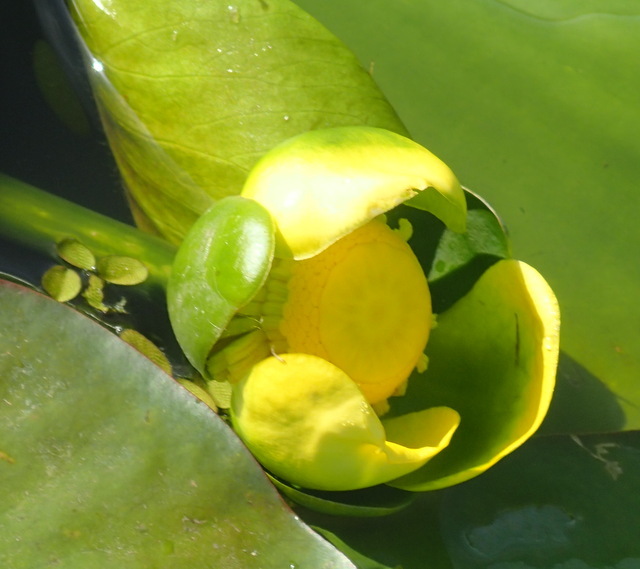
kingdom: Plantae
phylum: Tracheophyta
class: Magnoliopsida
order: Nymphaeales
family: Nymphaeaceae
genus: Nuphar
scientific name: Nuphar advena
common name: Spatter-dock
